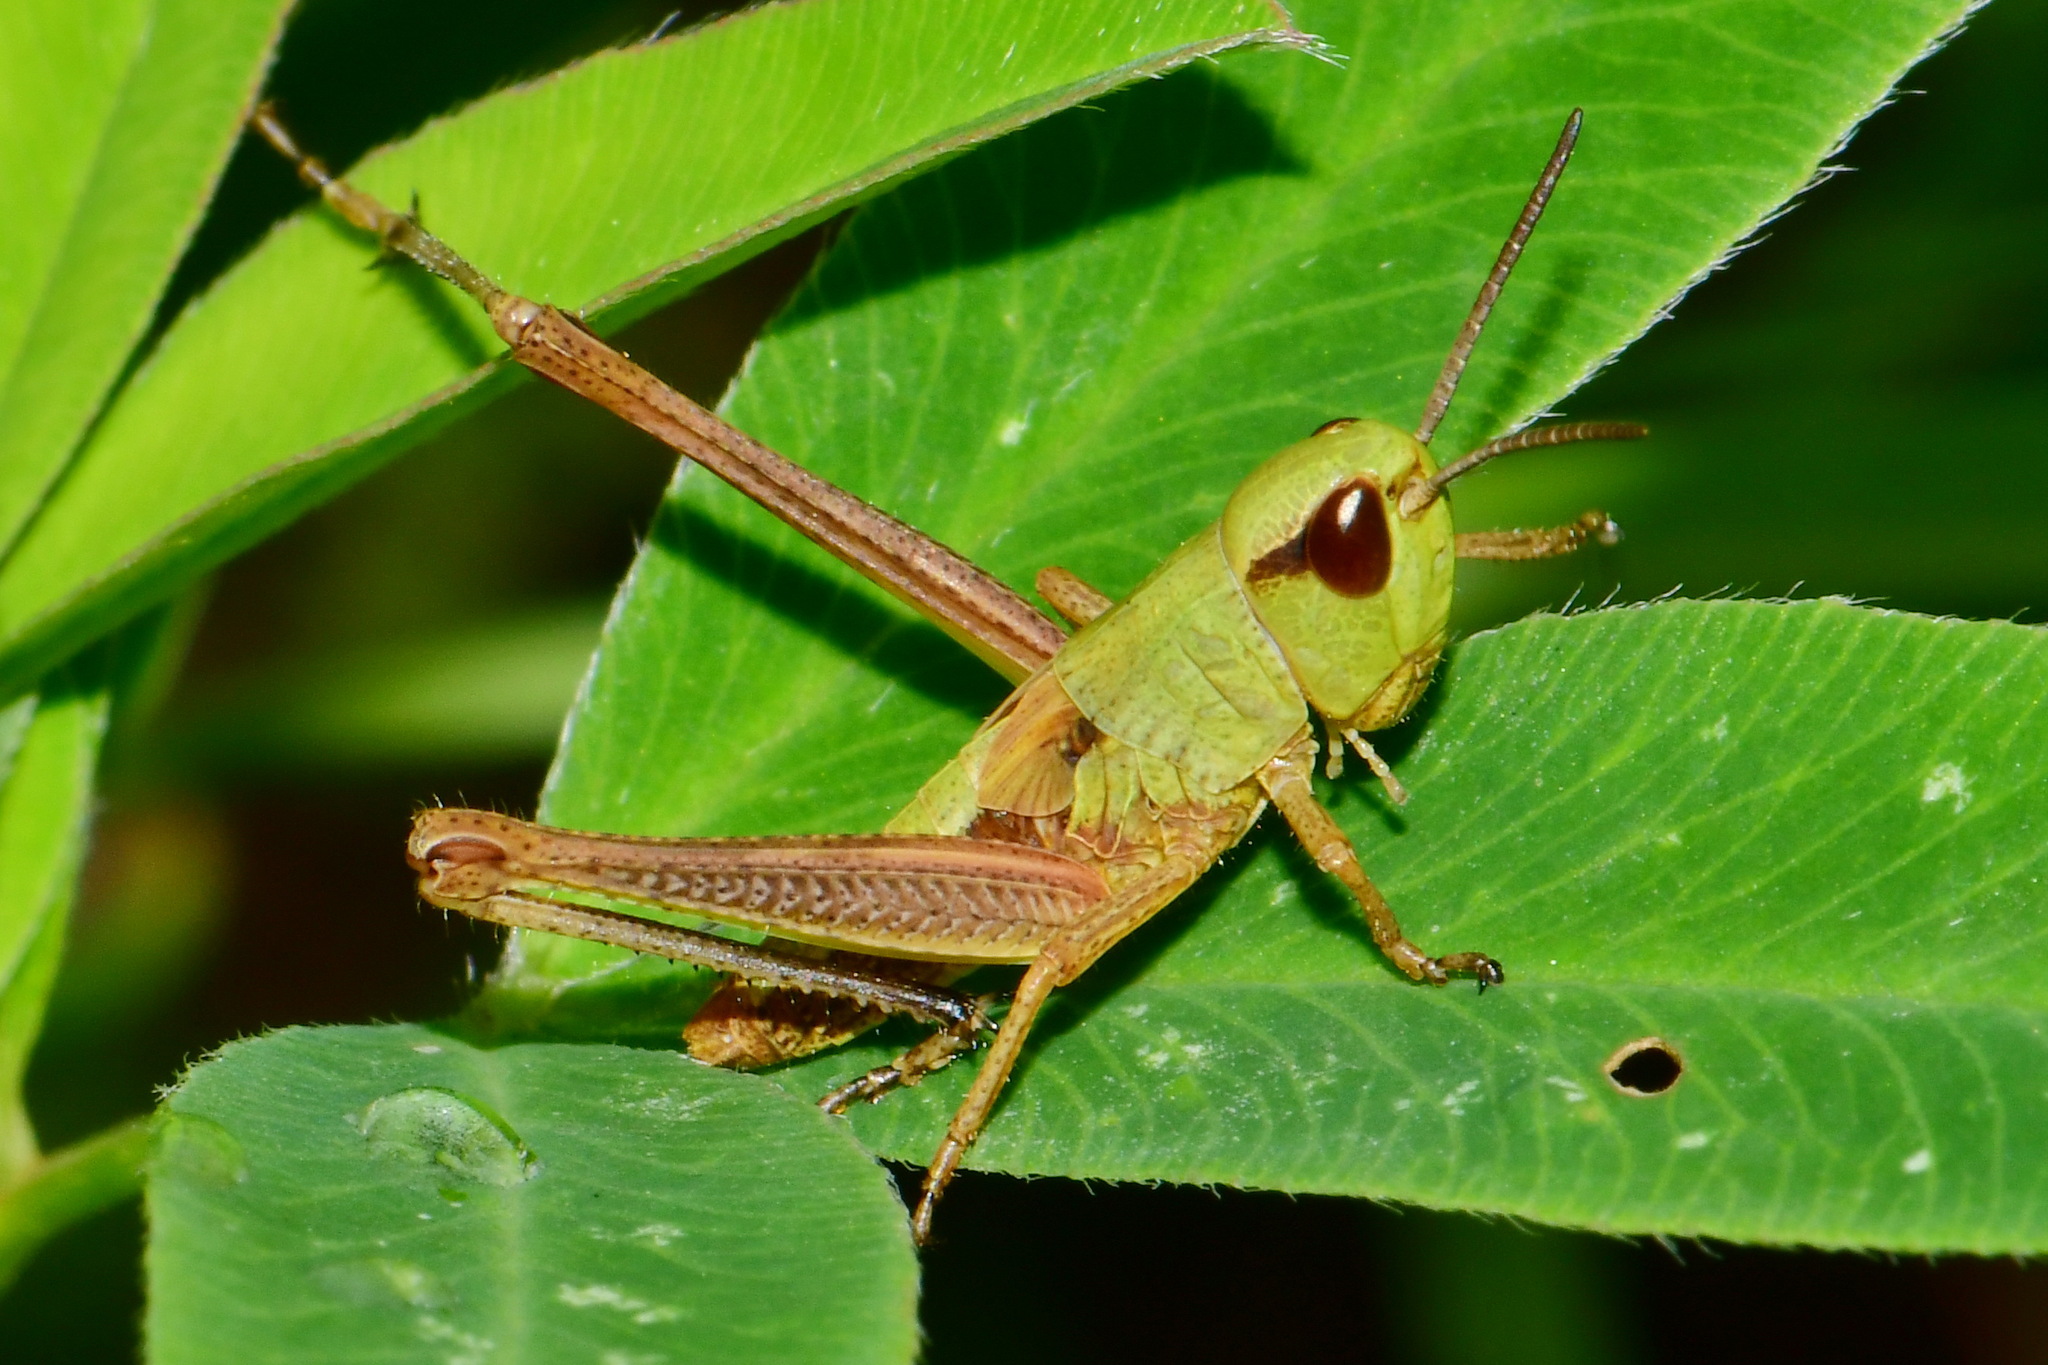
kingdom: Animalia
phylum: Arthropoda
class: Insecta
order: Orthoptera
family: Acrididae
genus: Pseudochorthippus
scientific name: Pseudochorthippus parallelus
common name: Meadow grasshopper
